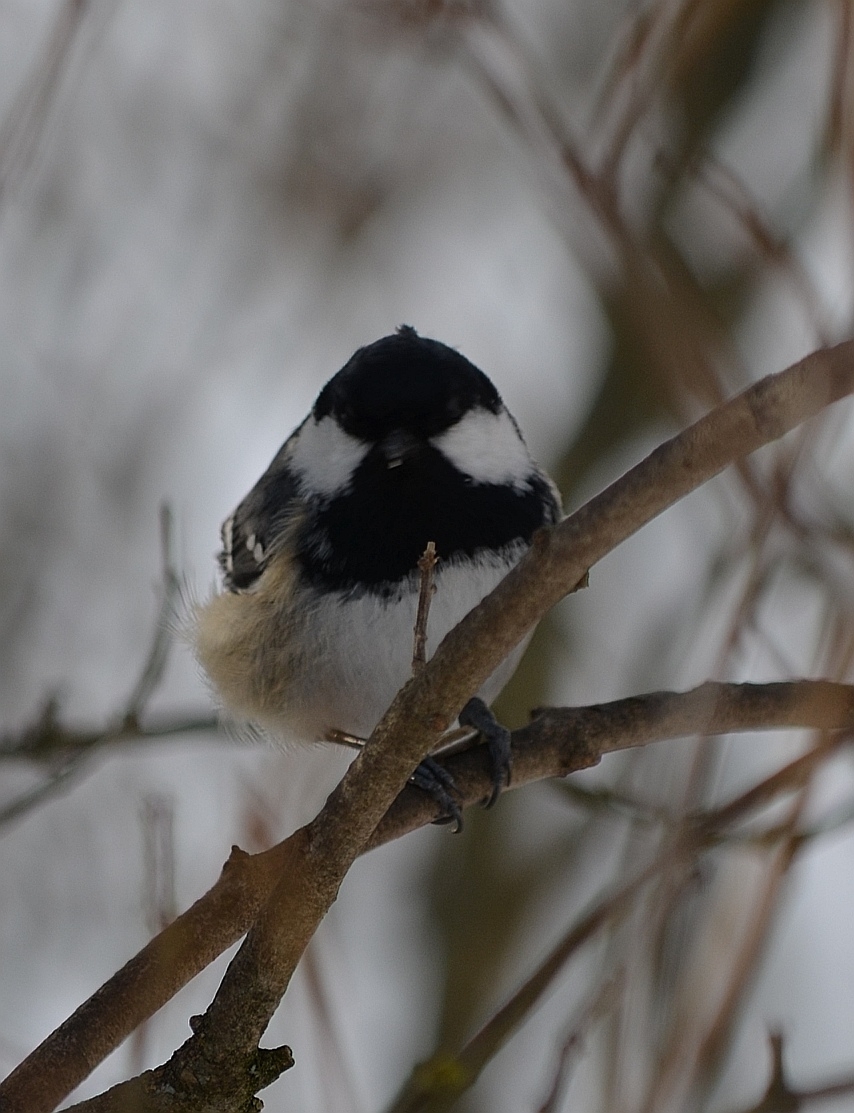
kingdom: Animalia
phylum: Chordata
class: Aves
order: Passeriformes
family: Paridae
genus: Periparus
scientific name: Periparus ater
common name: Coal tit
